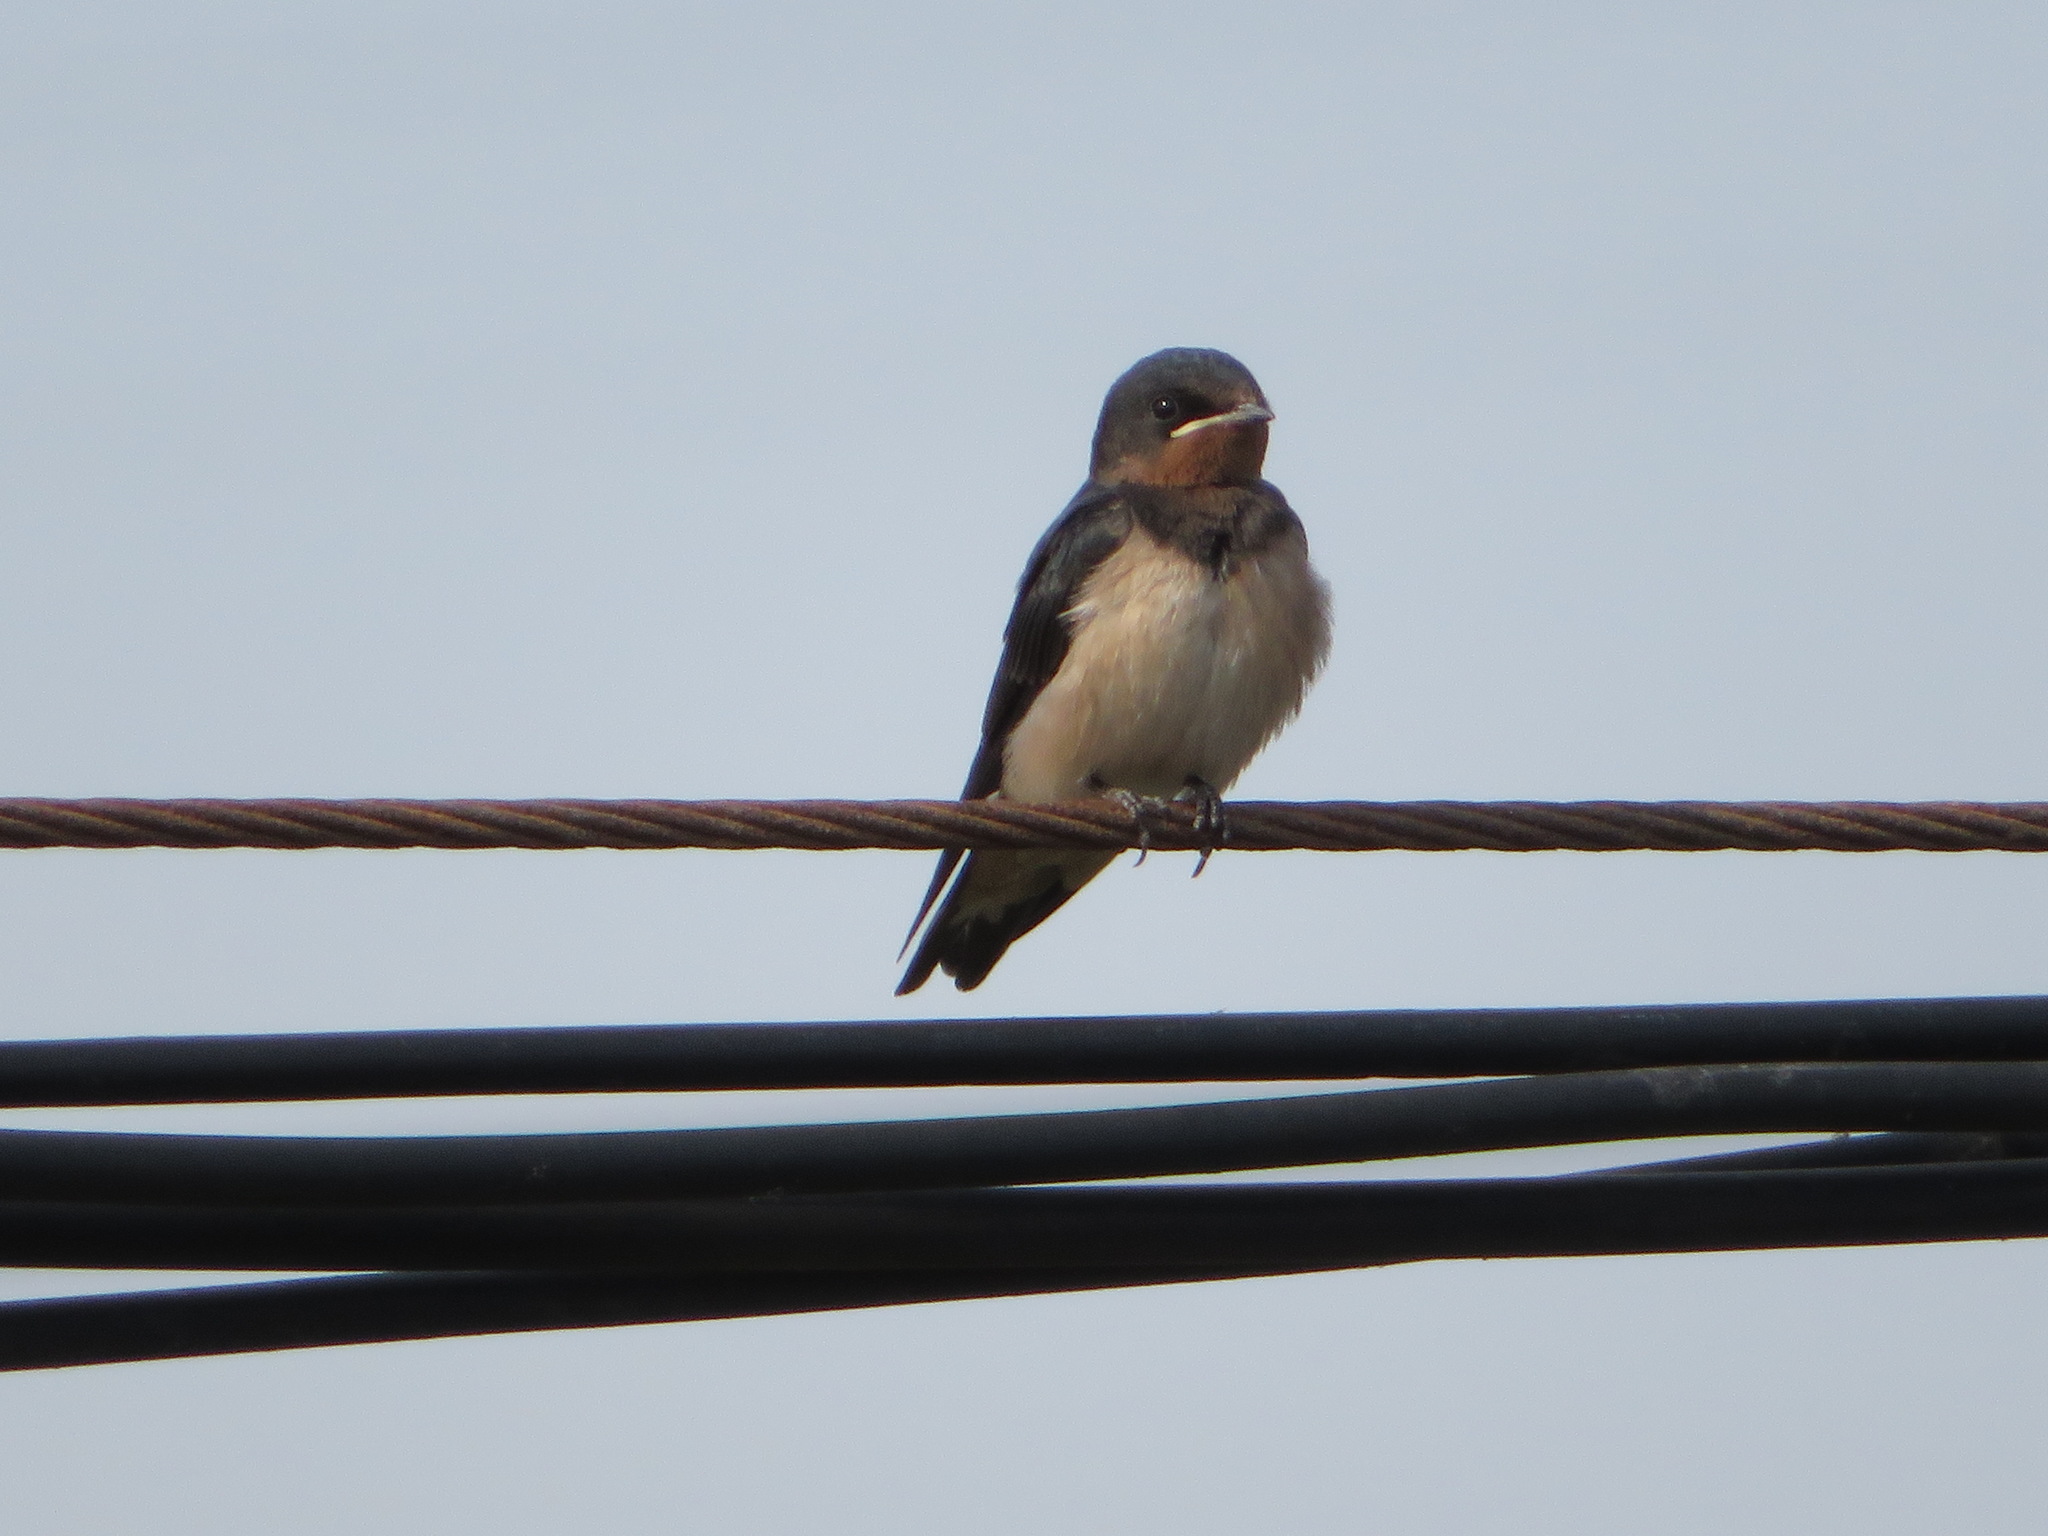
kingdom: Animalia
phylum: Chordata
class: Aves
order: Passeriformes
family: Hirundinidae
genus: Hirundo
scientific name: Hirundo rustica
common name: Barn swallow
